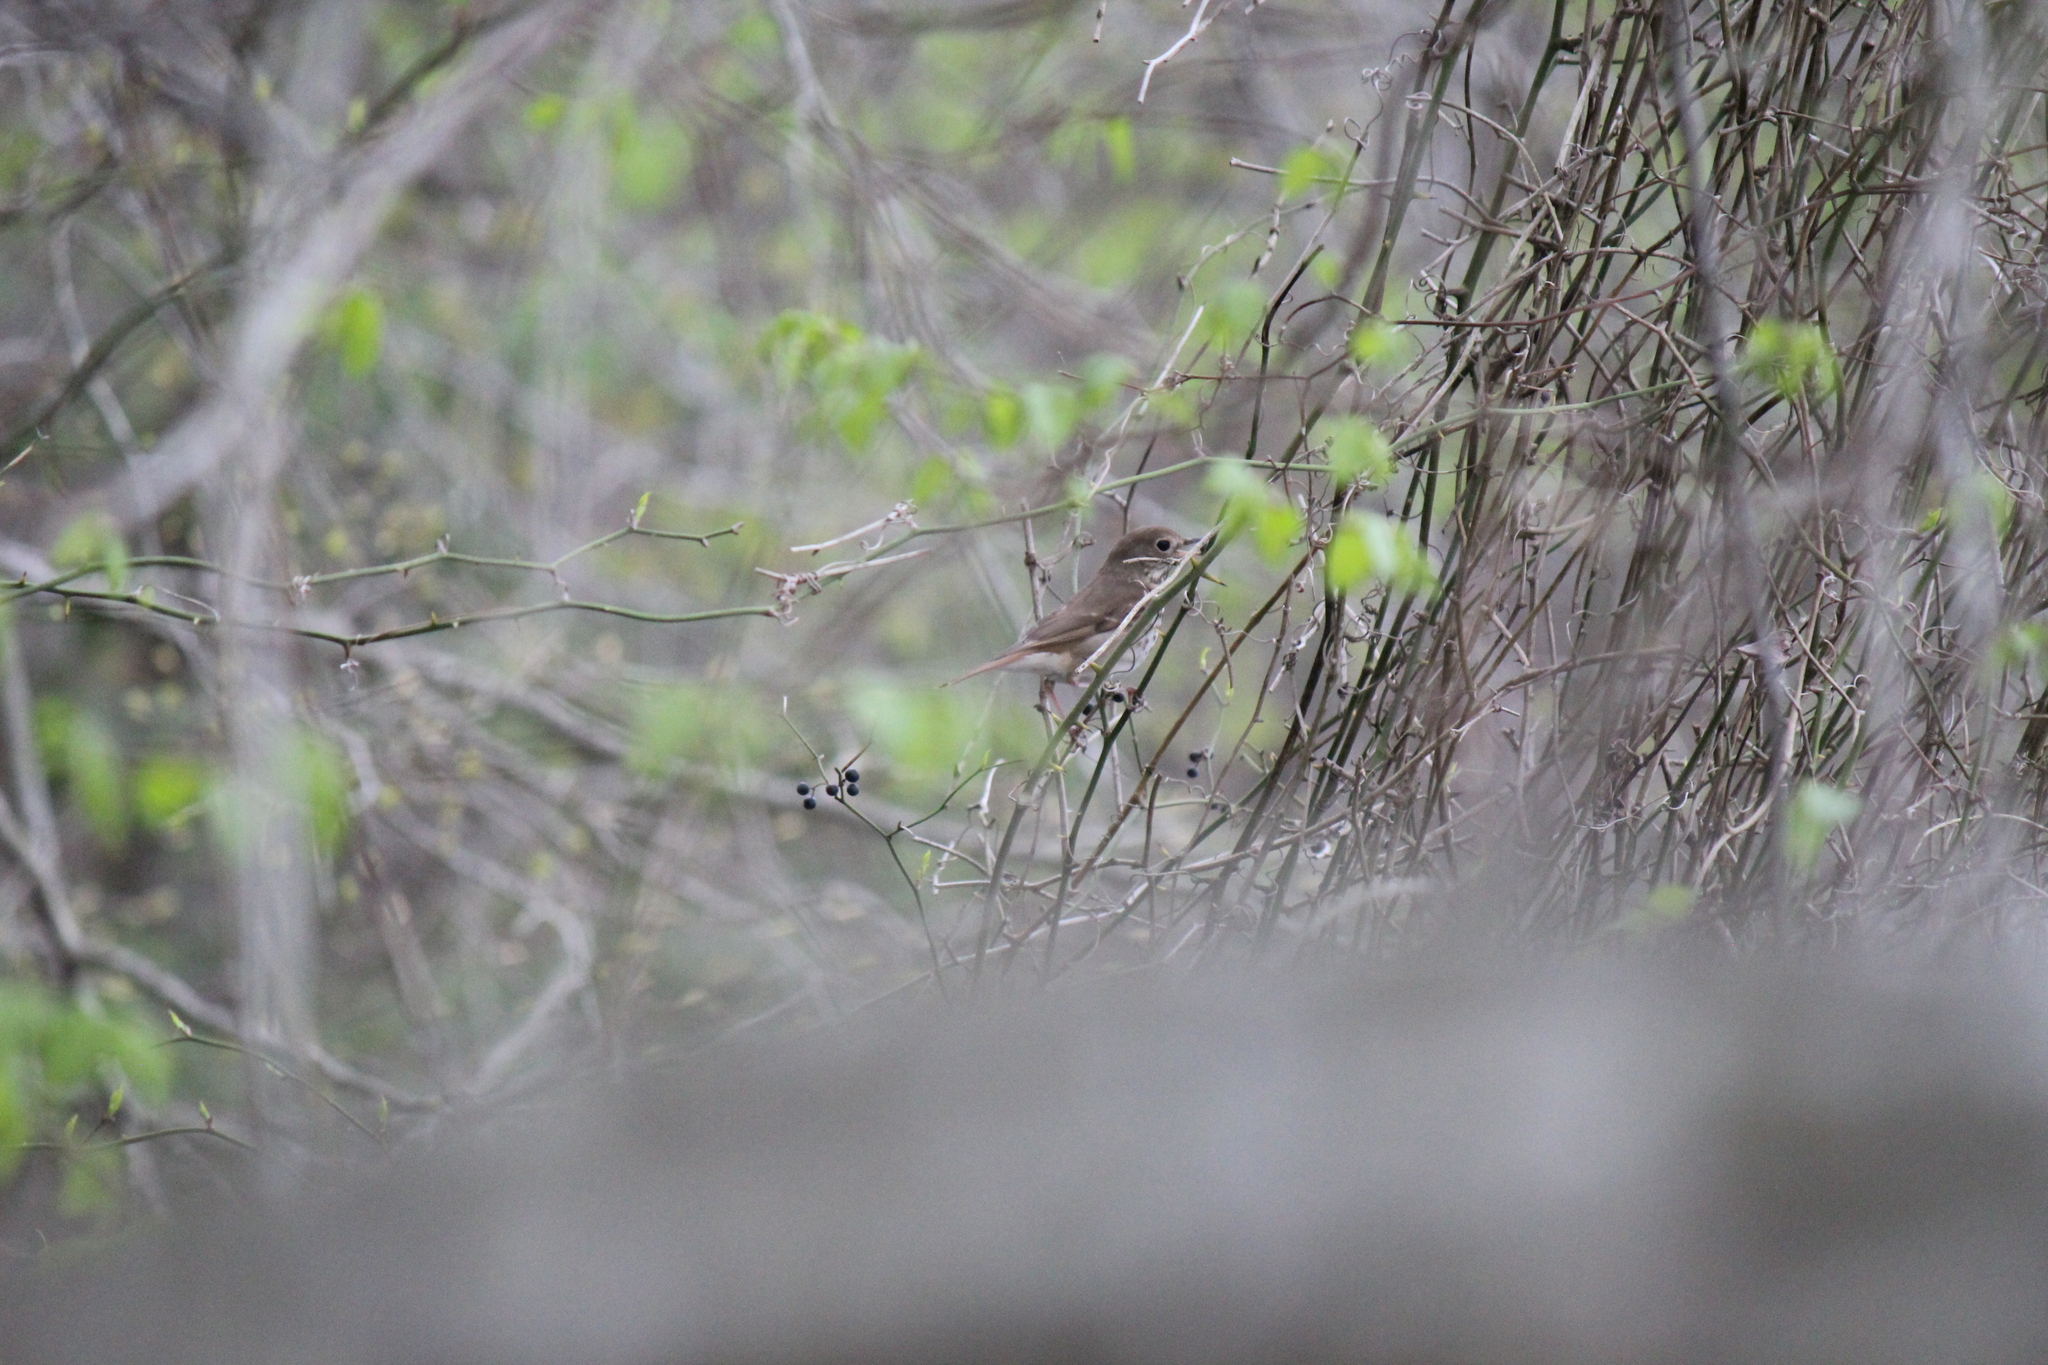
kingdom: Animalia
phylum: Chordata
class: Aves
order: Passeriformes
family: Turdidae
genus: Catharus
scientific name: Catharus guttatus
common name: Hermit thrush
